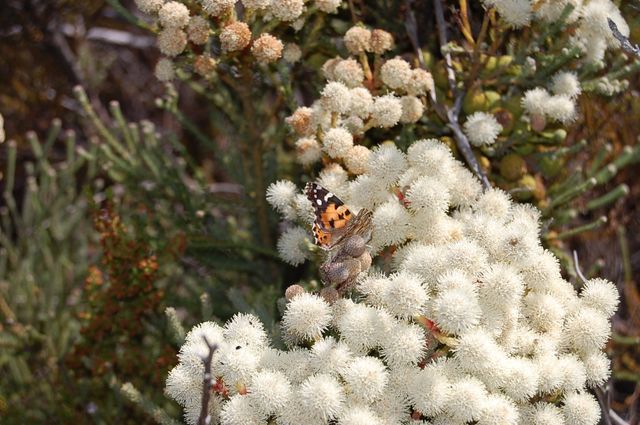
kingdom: Plantae
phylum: Tracheophyta
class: Magnoliopsida
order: Bruniales
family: Bruniaceae
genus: Berzelia
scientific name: Berzelia abrotanoides
